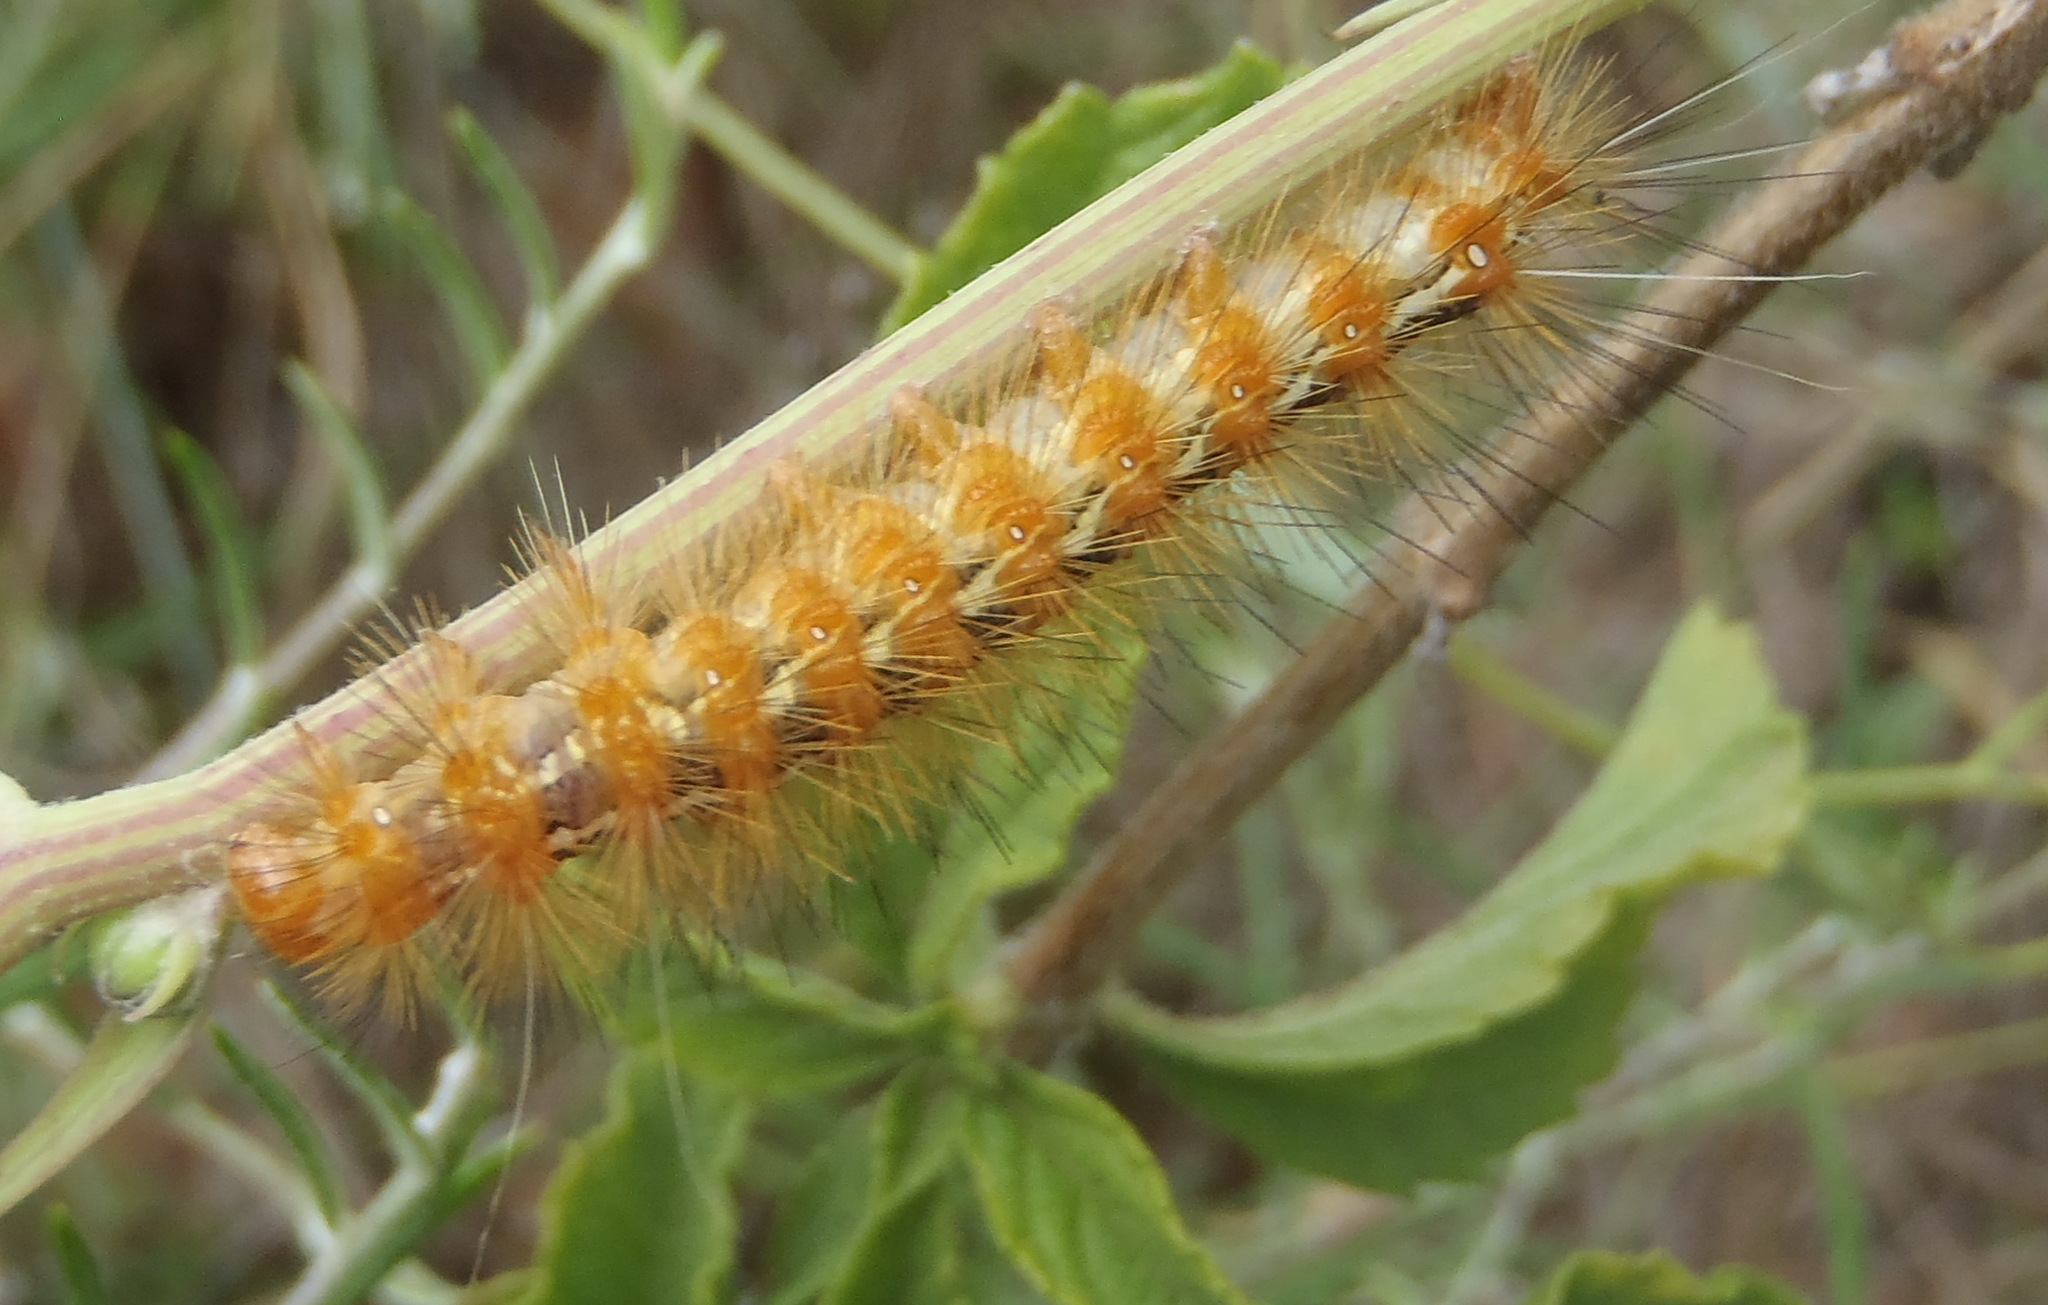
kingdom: Animalia
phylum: Arthropoda
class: Insecta
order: Lepidoptera
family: Erebidae
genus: Saenura
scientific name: Saenura flava
